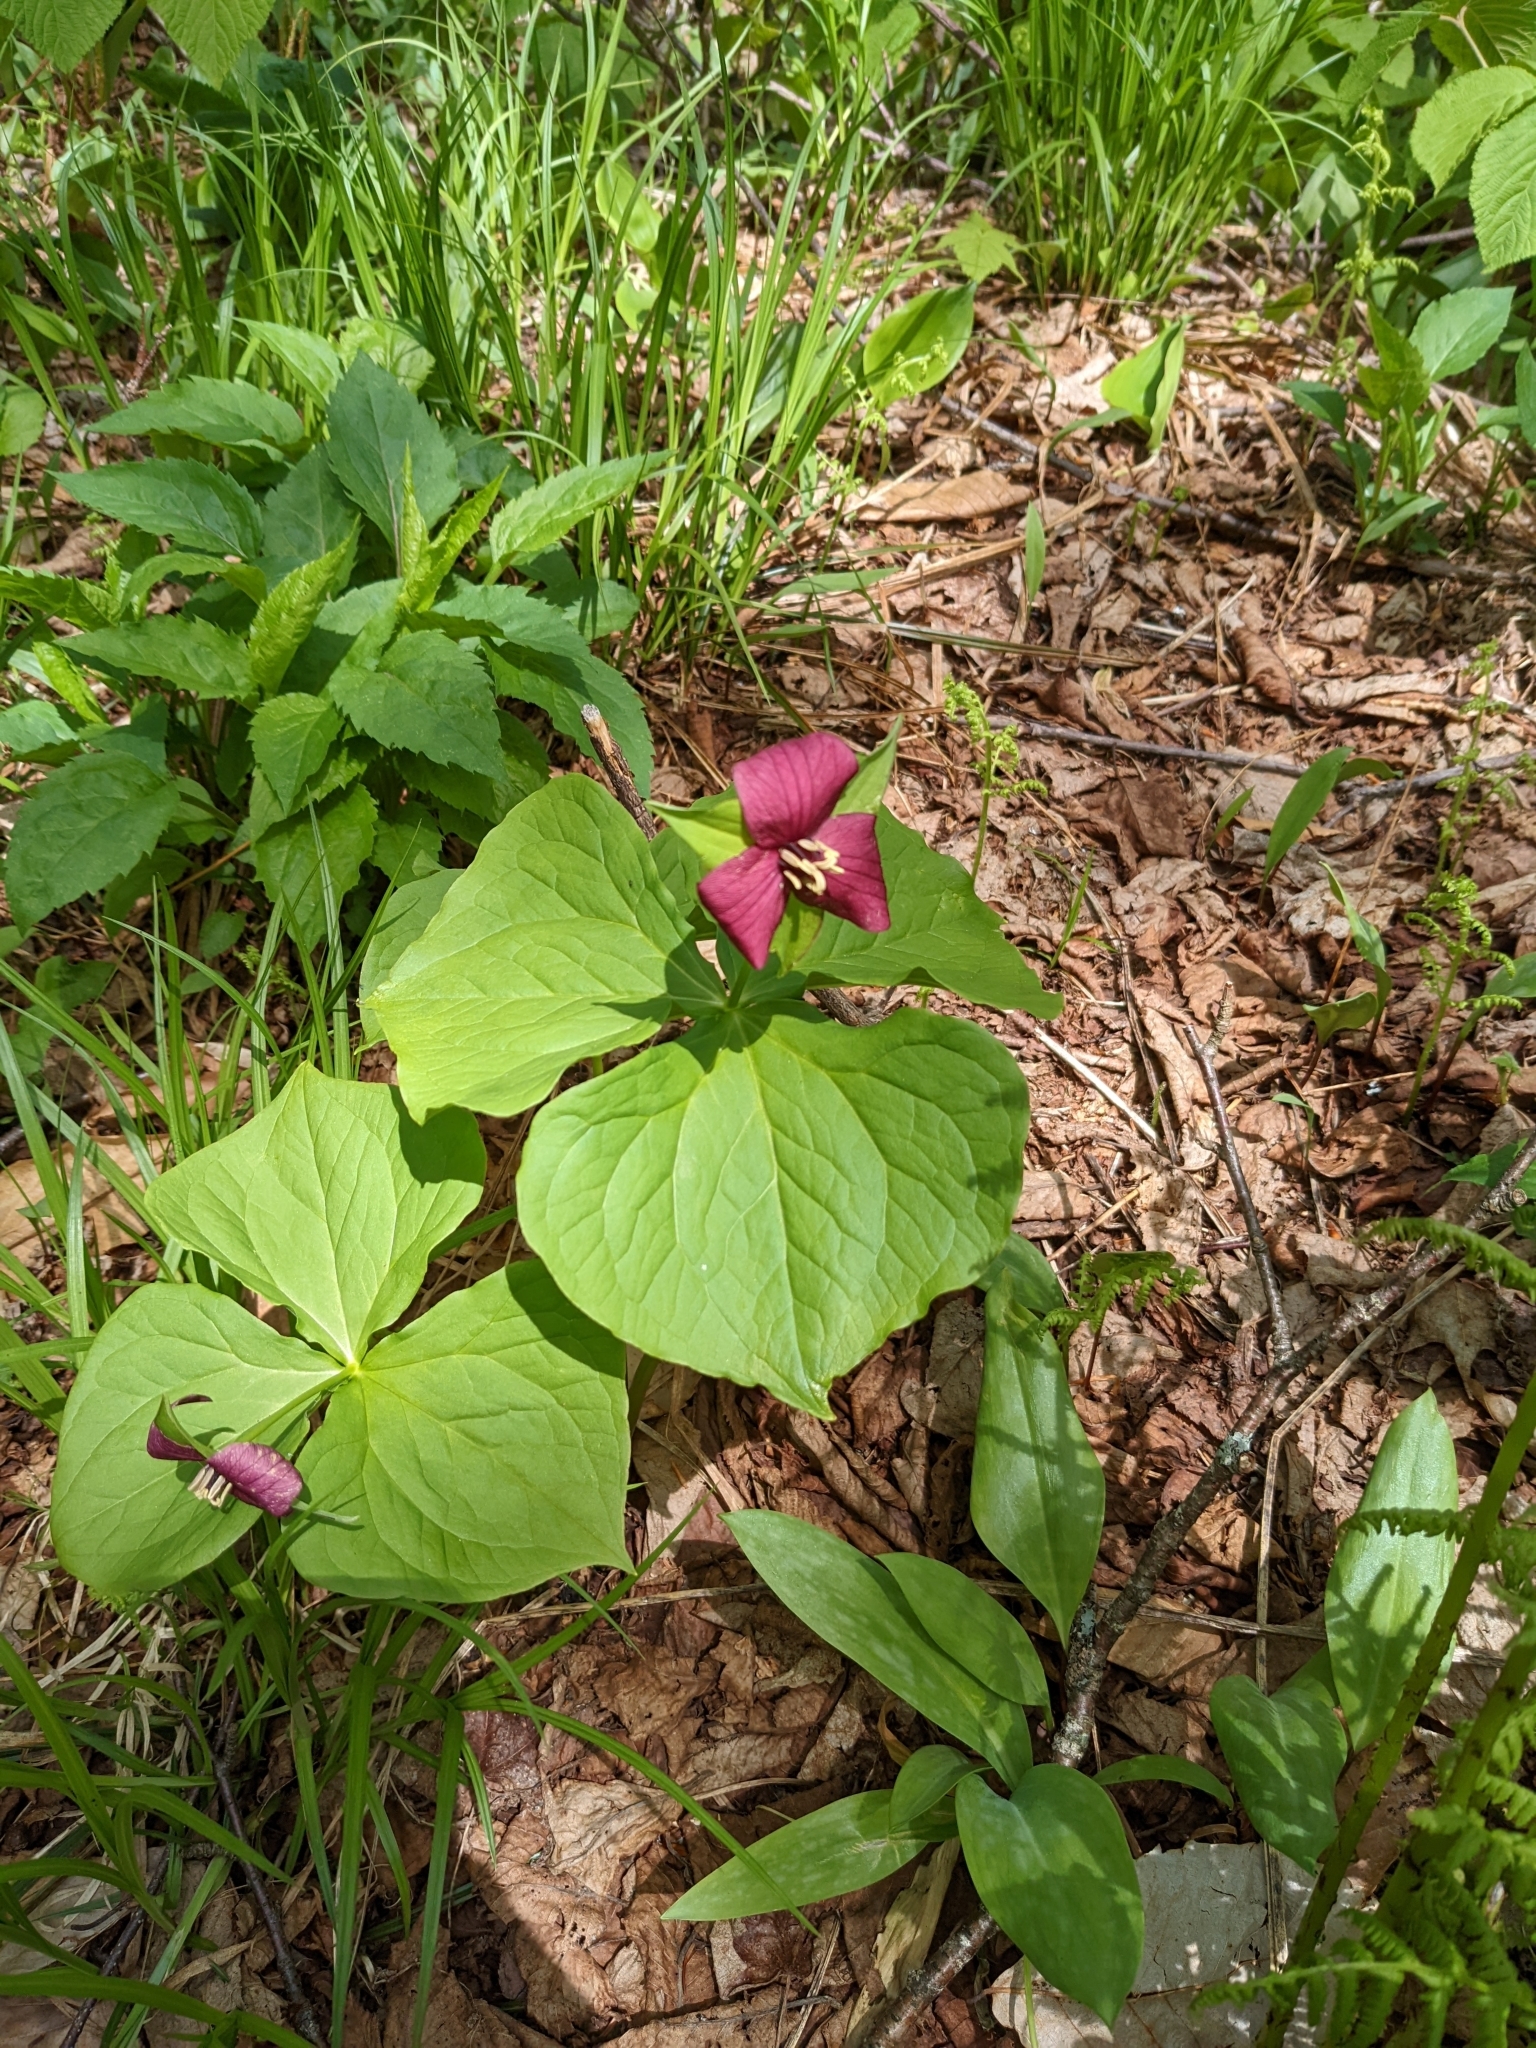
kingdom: Plantae
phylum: Tracheophyta
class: Liliopsida
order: Liliales
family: Melanthiaceae
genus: Trillium
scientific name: Trillium erectum
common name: Purple trillium
